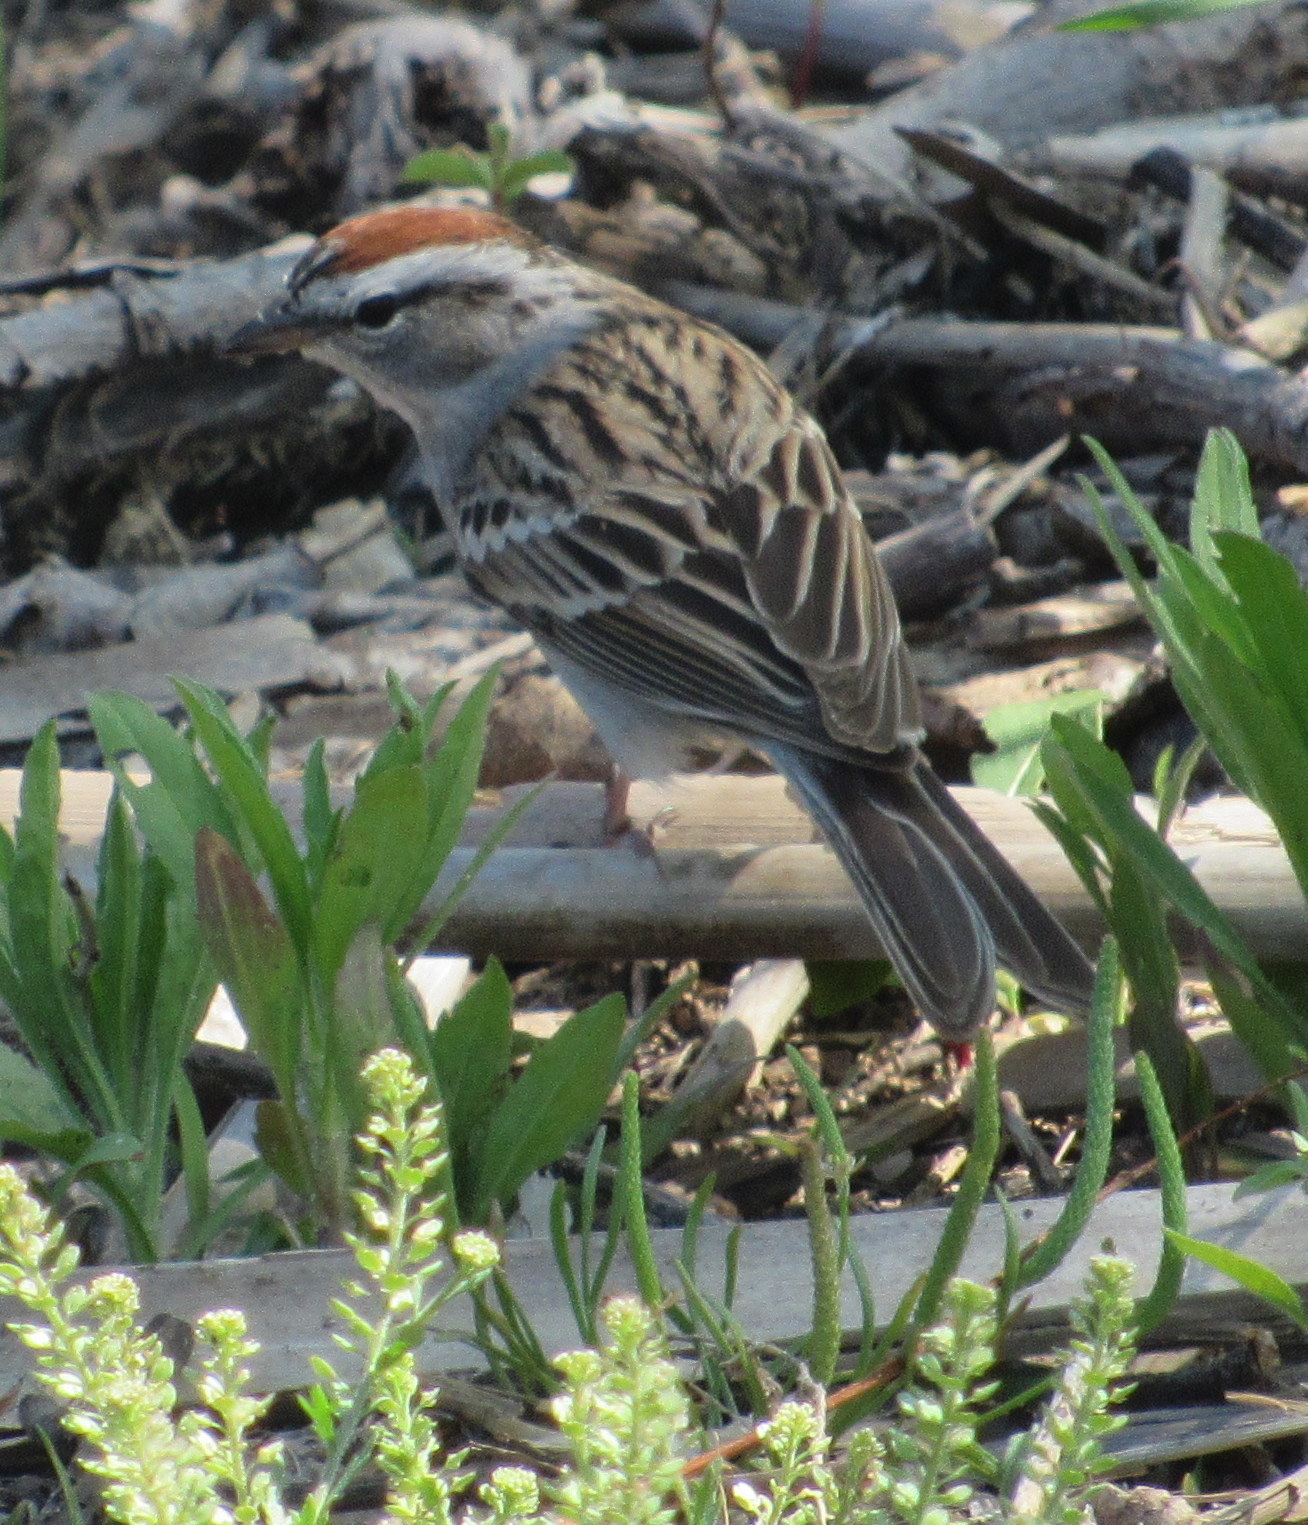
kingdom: Animalia
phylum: Chordata
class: Aves
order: Passeriformes
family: Passerellidae
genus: Spizella
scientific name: Spizella passerina
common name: Chipping sparrow
